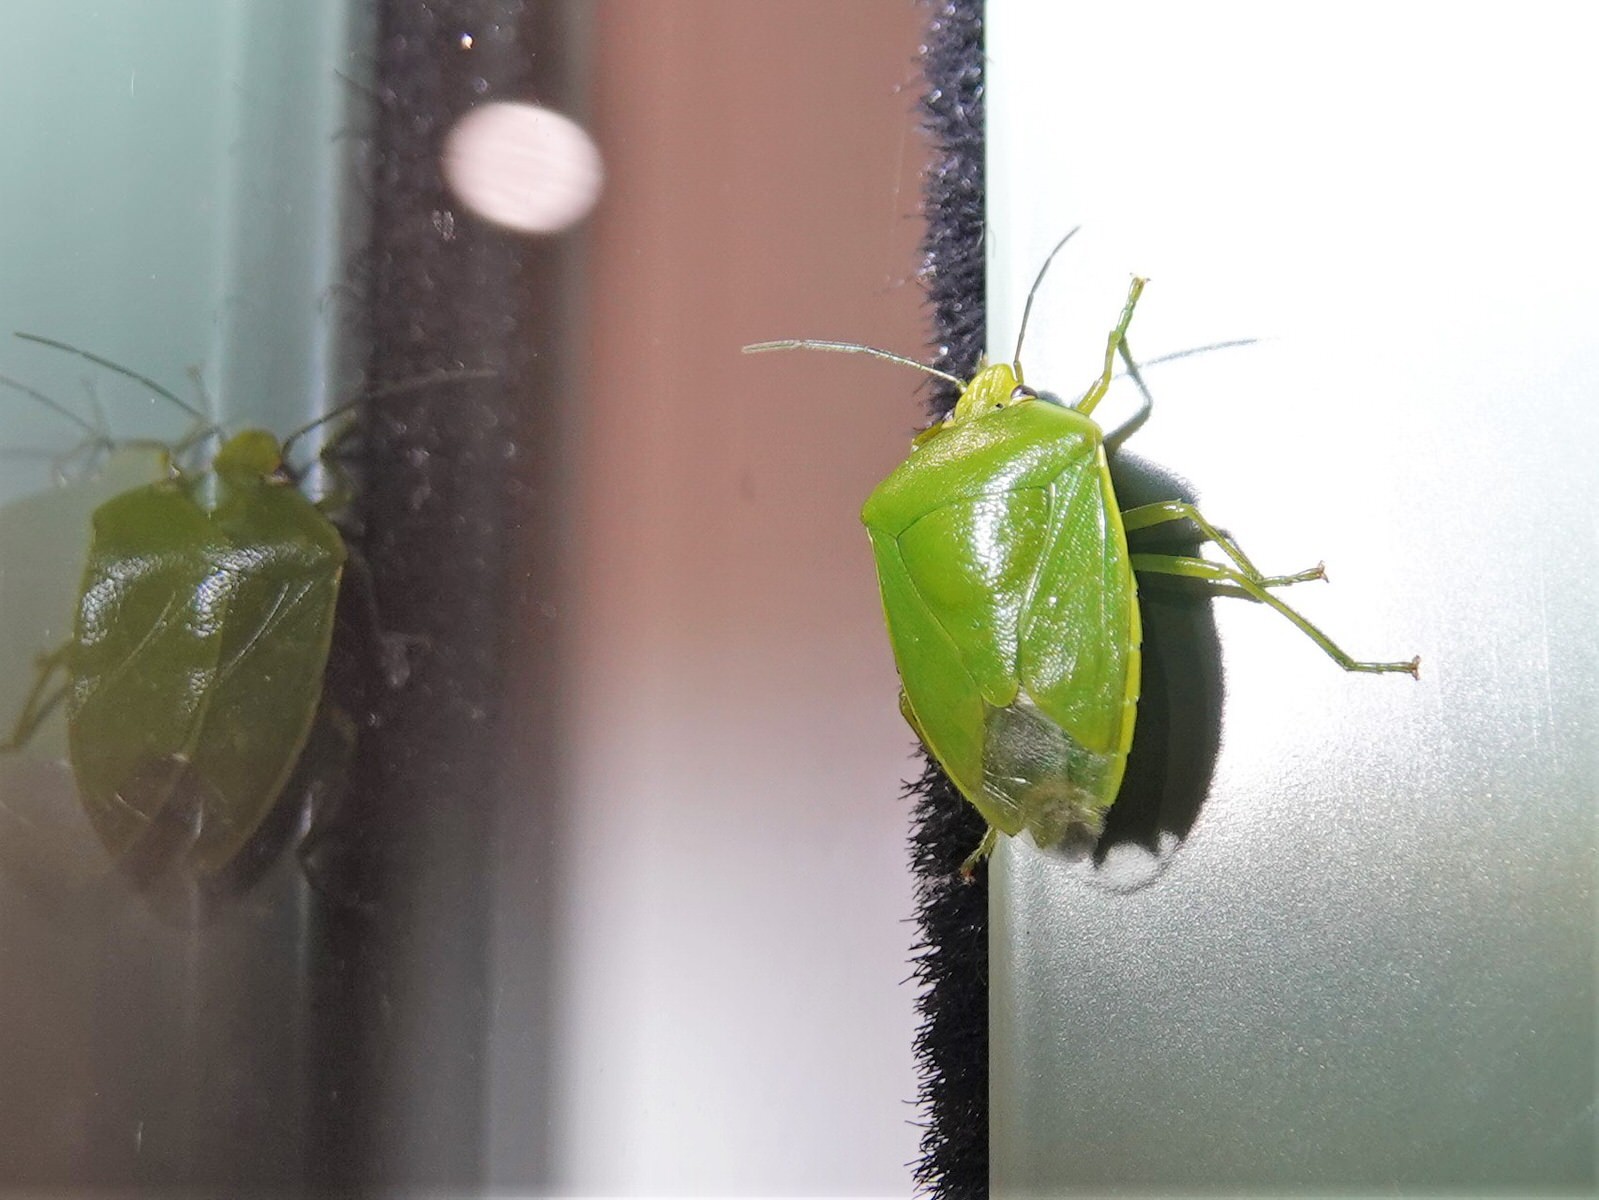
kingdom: Animalia
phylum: Arthropoda
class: Insecta
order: Hemiptera
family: Pentatomidae
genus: Glaucias
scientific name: Glaucias amyota
